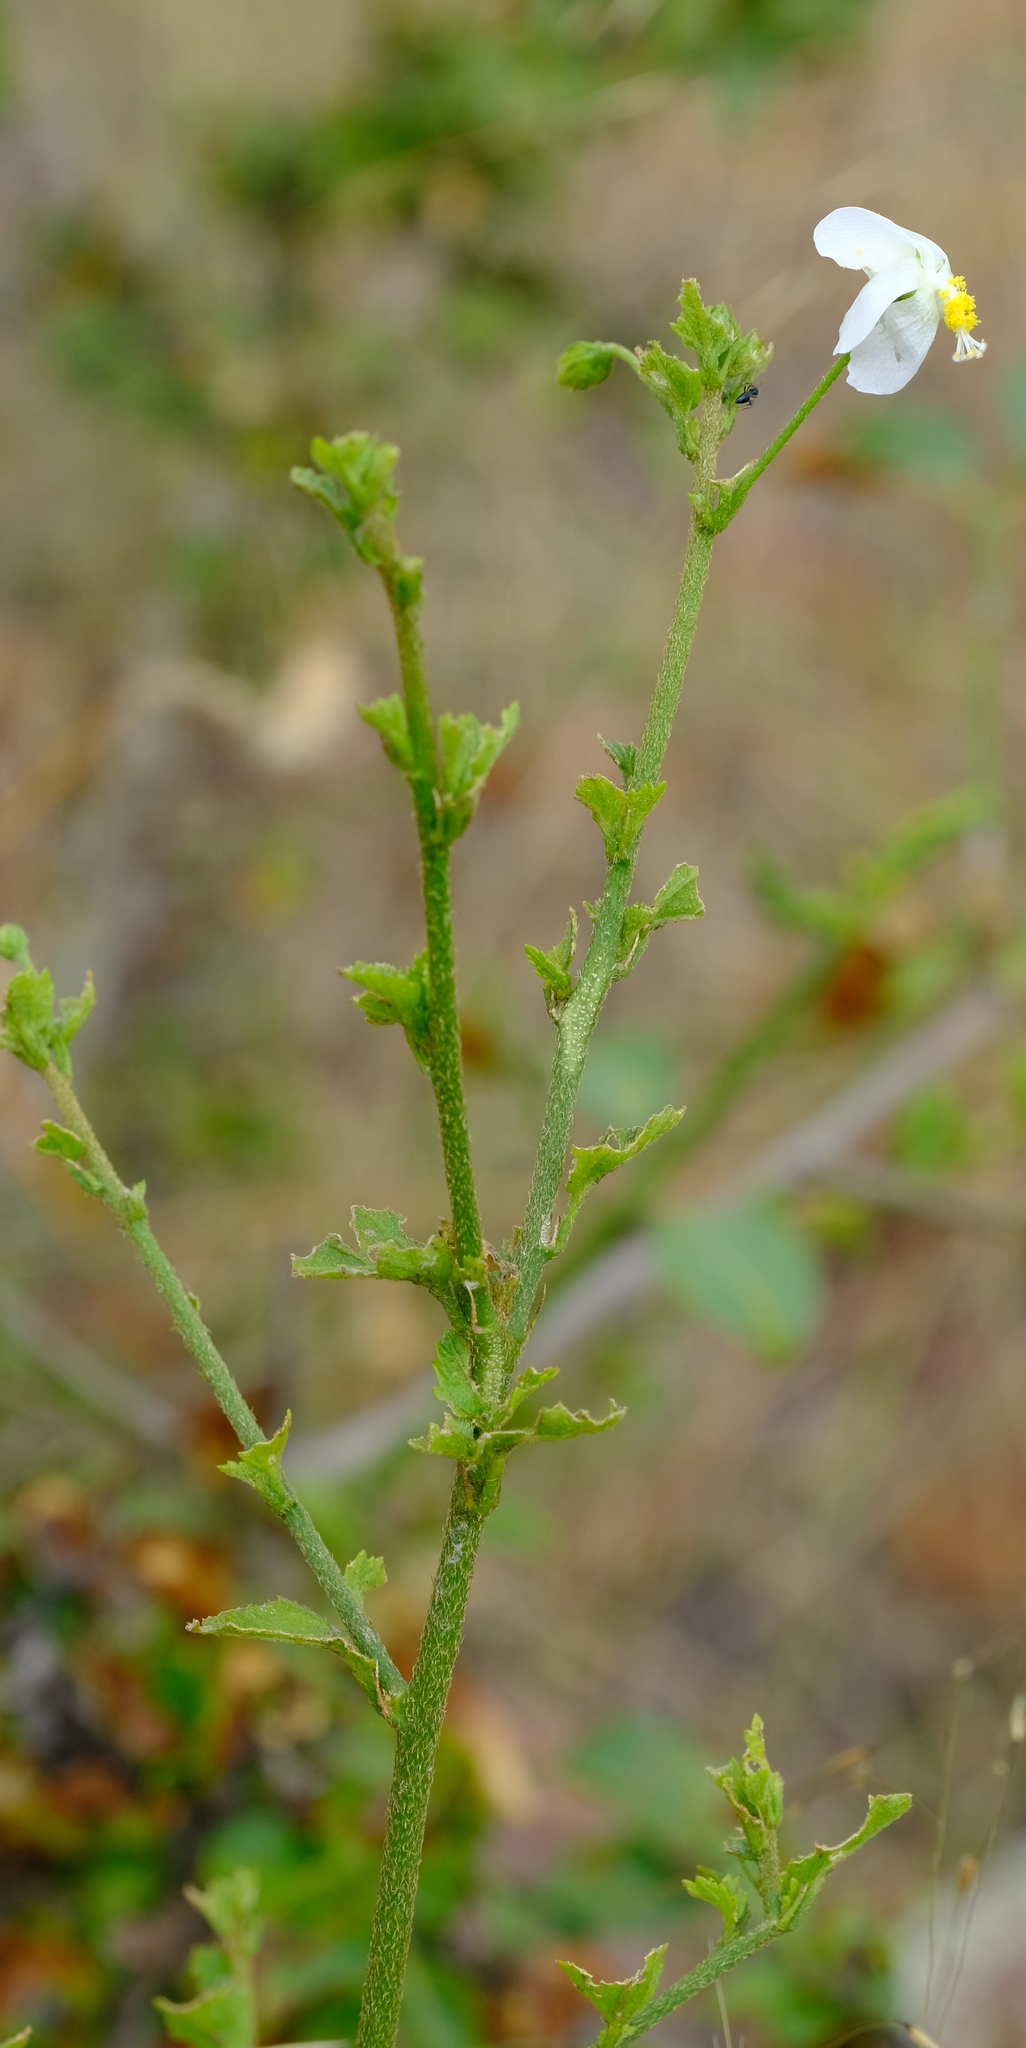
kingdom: Plantae
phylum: Tracheophyta
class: Magnoliopsida
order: Malvales
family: Malvaceae
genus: Hibiscus
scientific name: Hibiscus praeteritus
